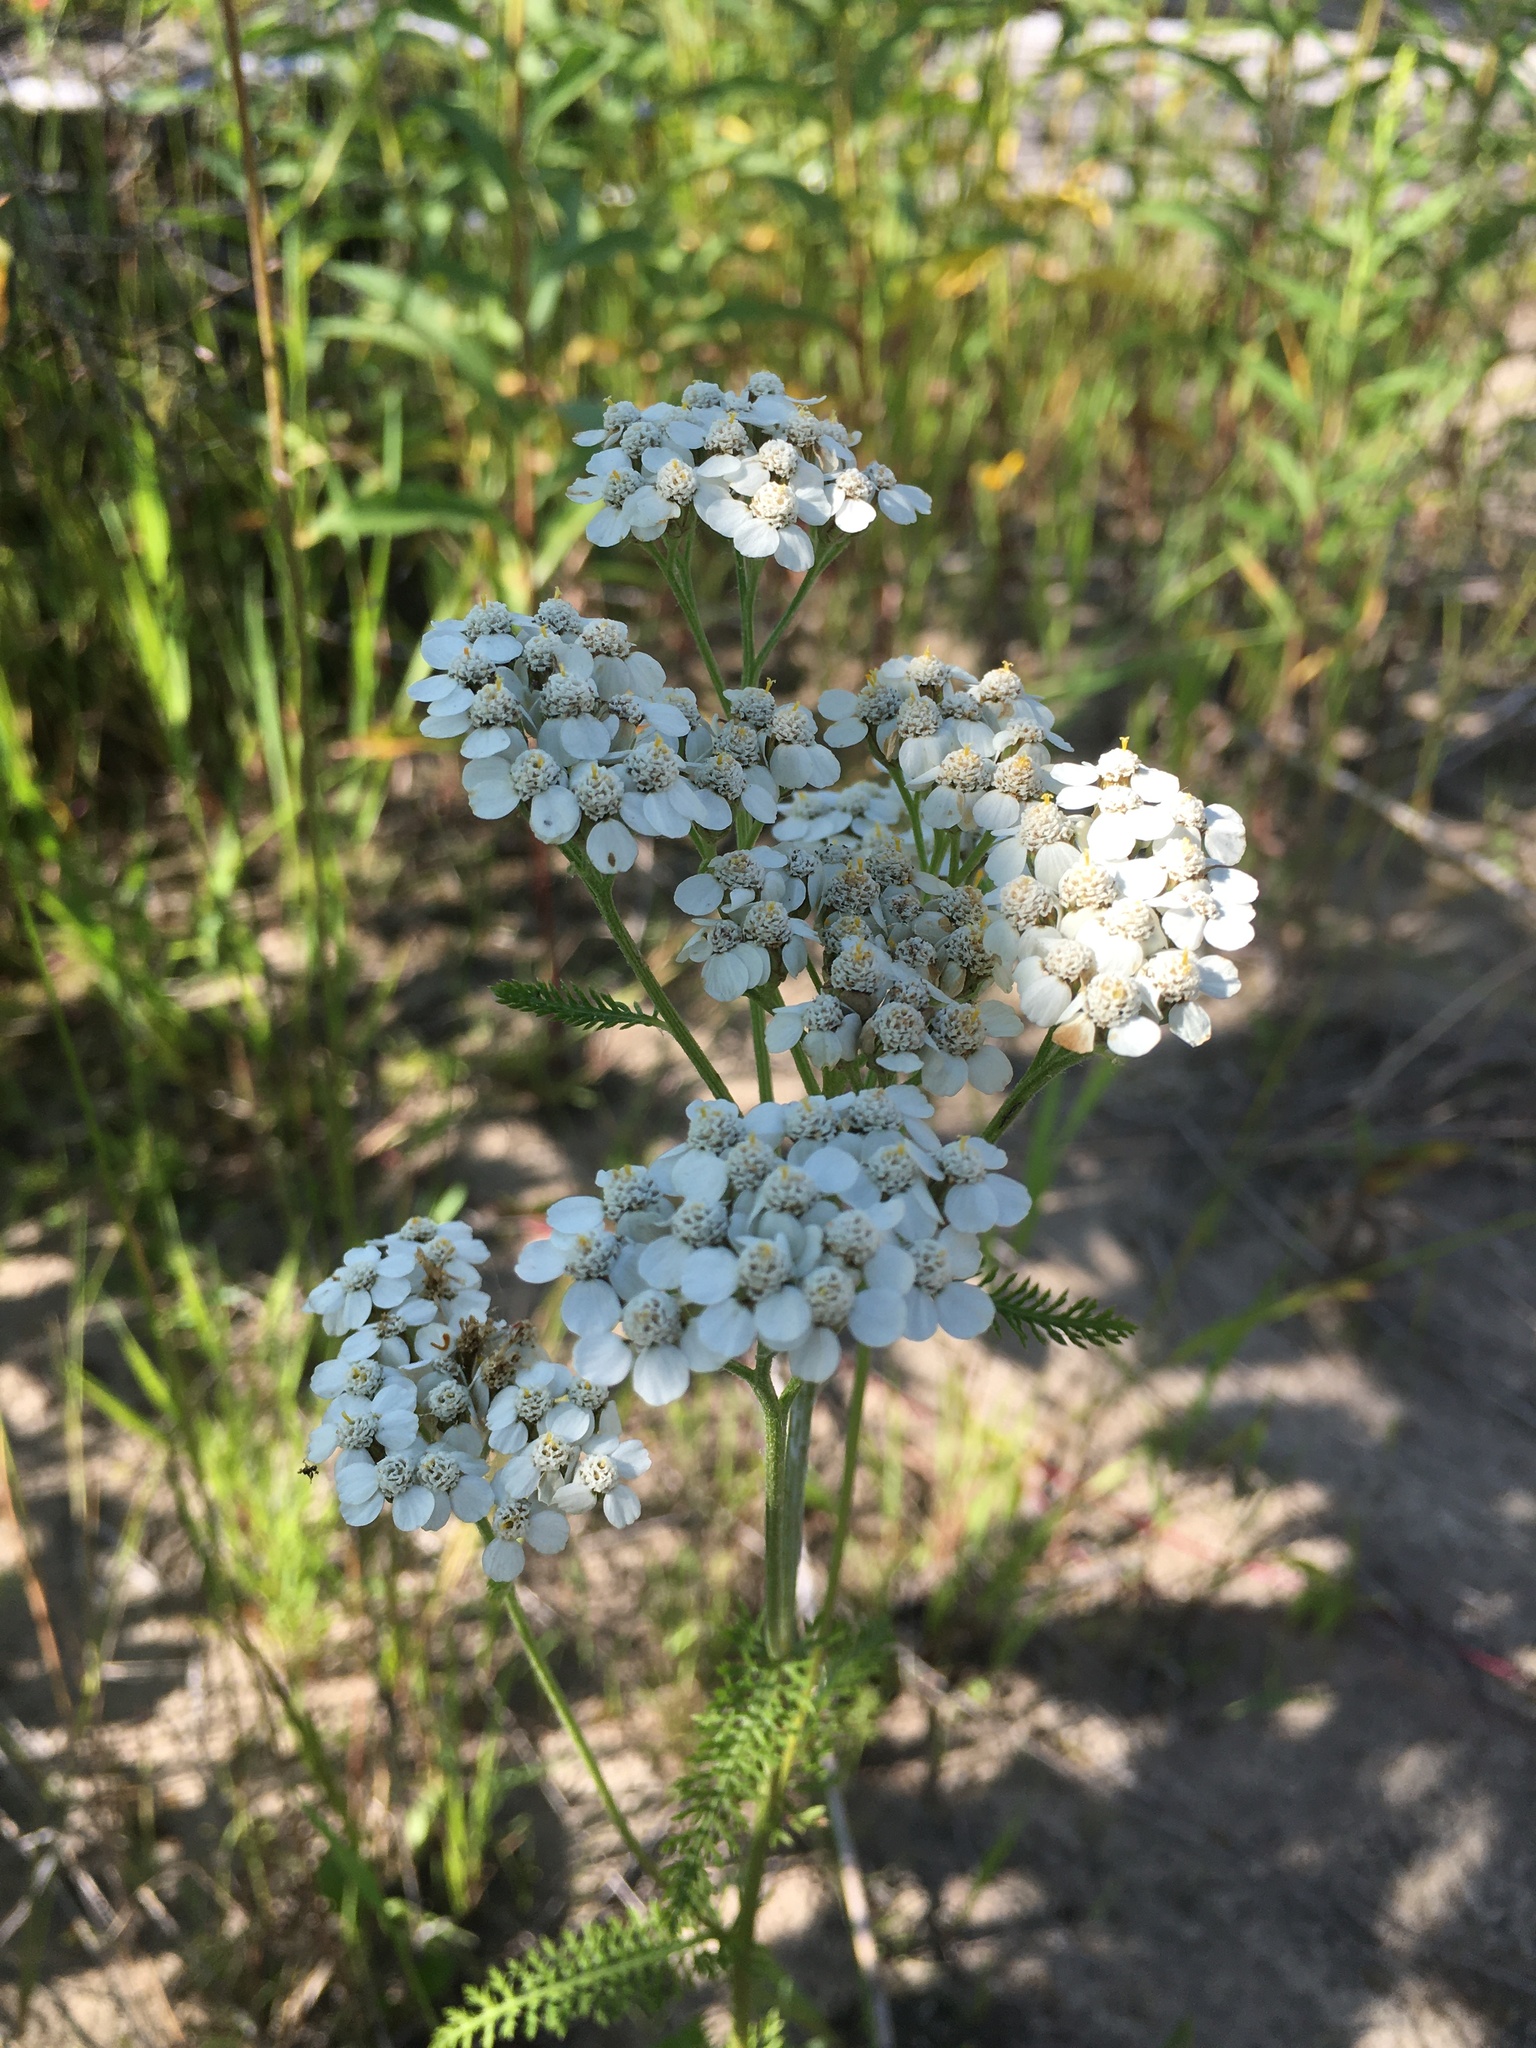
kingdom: Plantae
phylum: Tracheophyta
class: Magnoliopsida
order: Asterales
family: Asteraceae
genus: Achillea
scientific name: Achillea millefolium
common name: Yarrow
